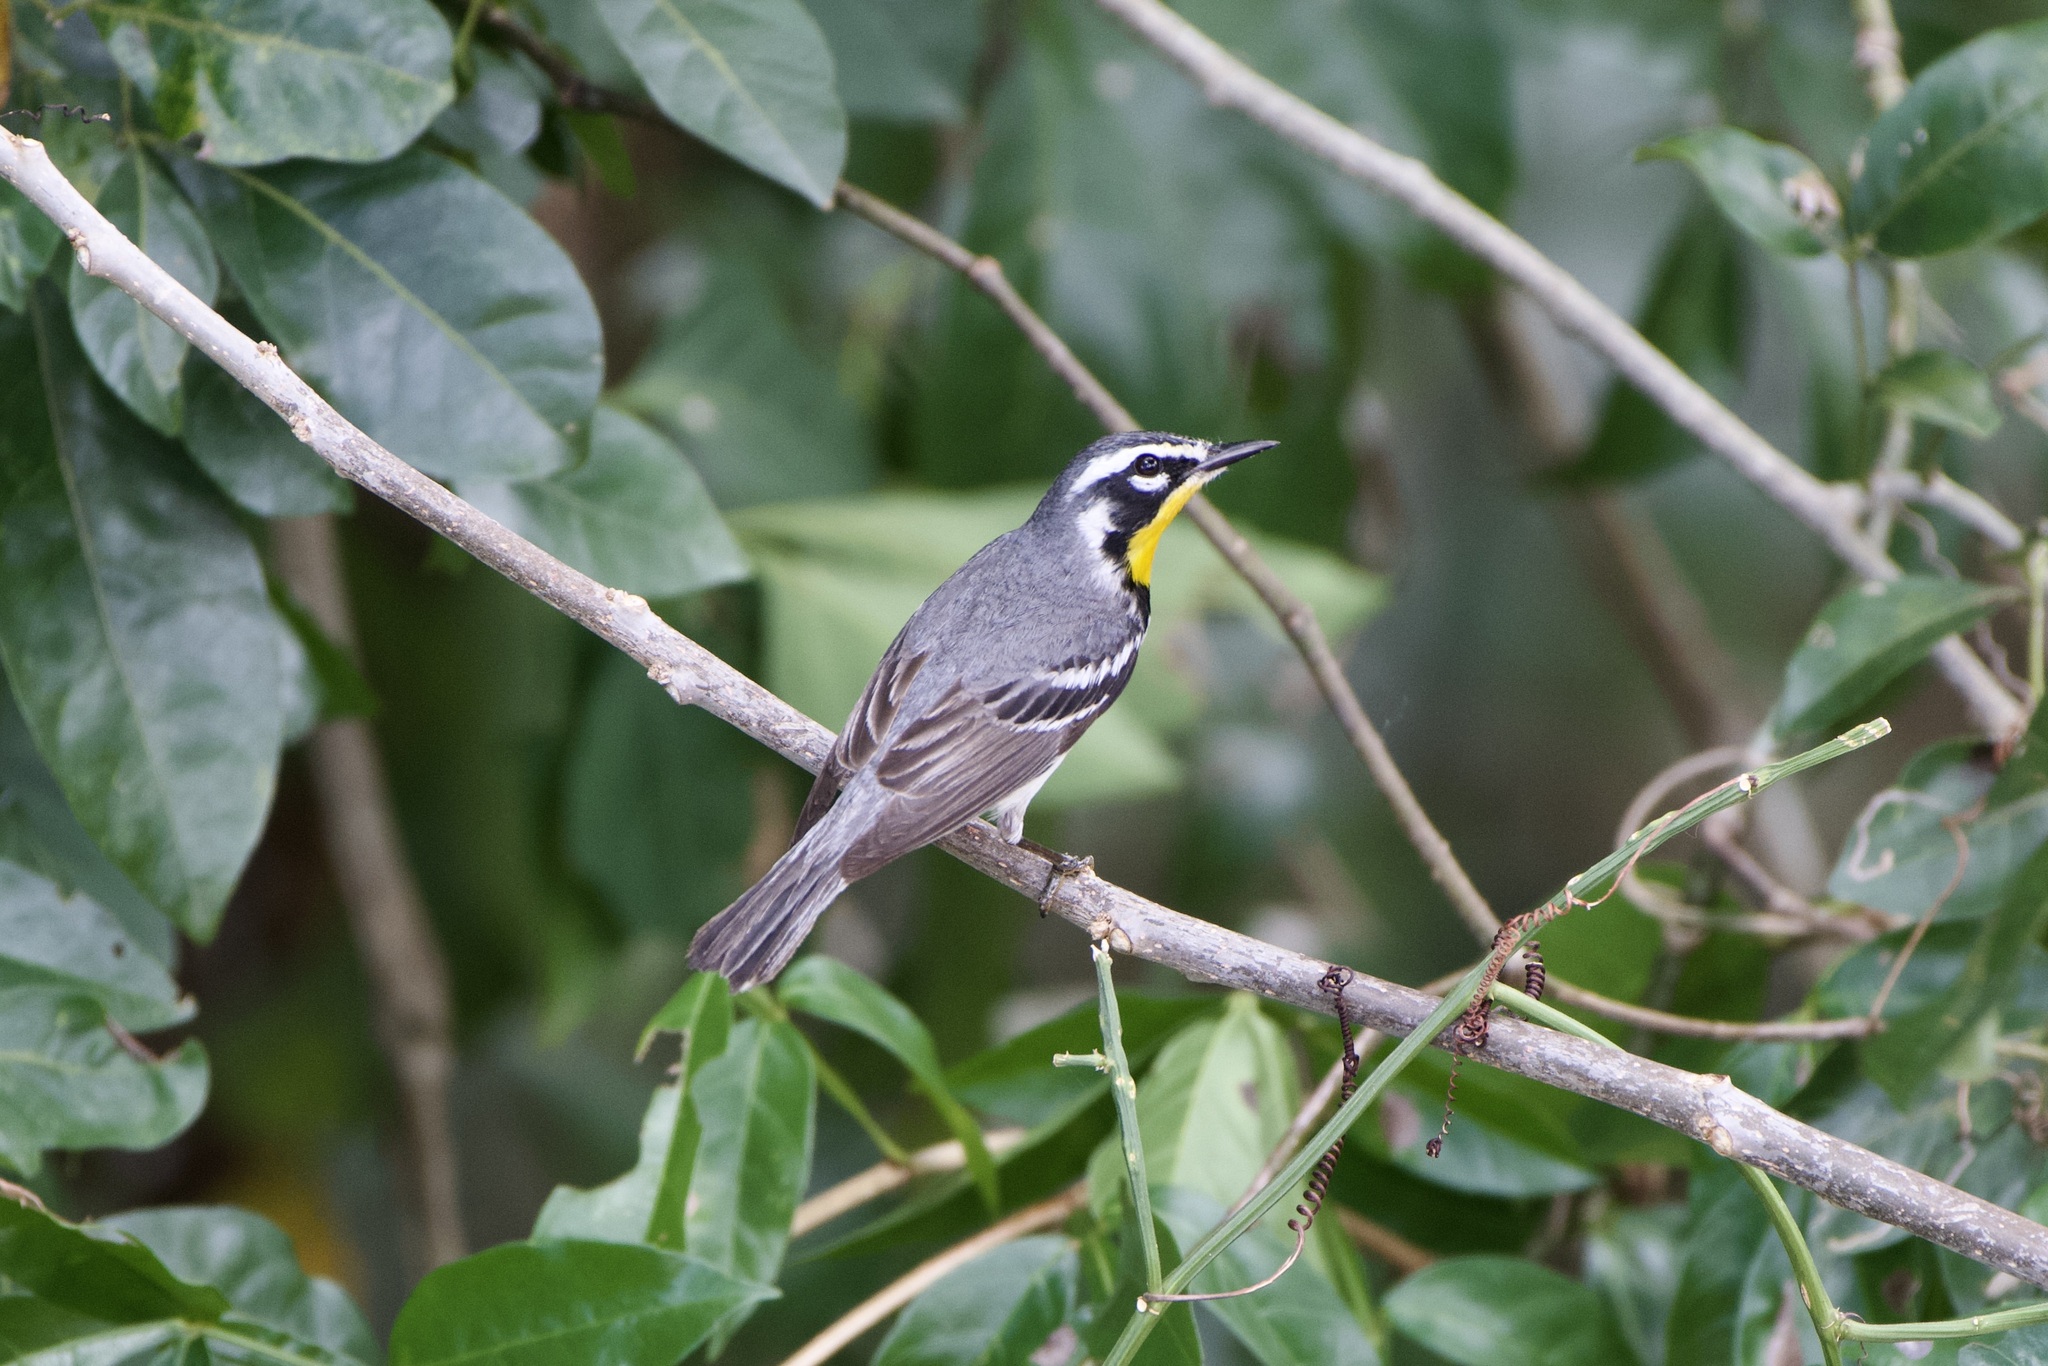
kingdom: Animalia
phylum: Chordata
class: Aves
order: Passeriformes
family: Parulidae
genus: Setophaga
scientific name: Setophaga dominica
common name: Yellow-throated warbler
